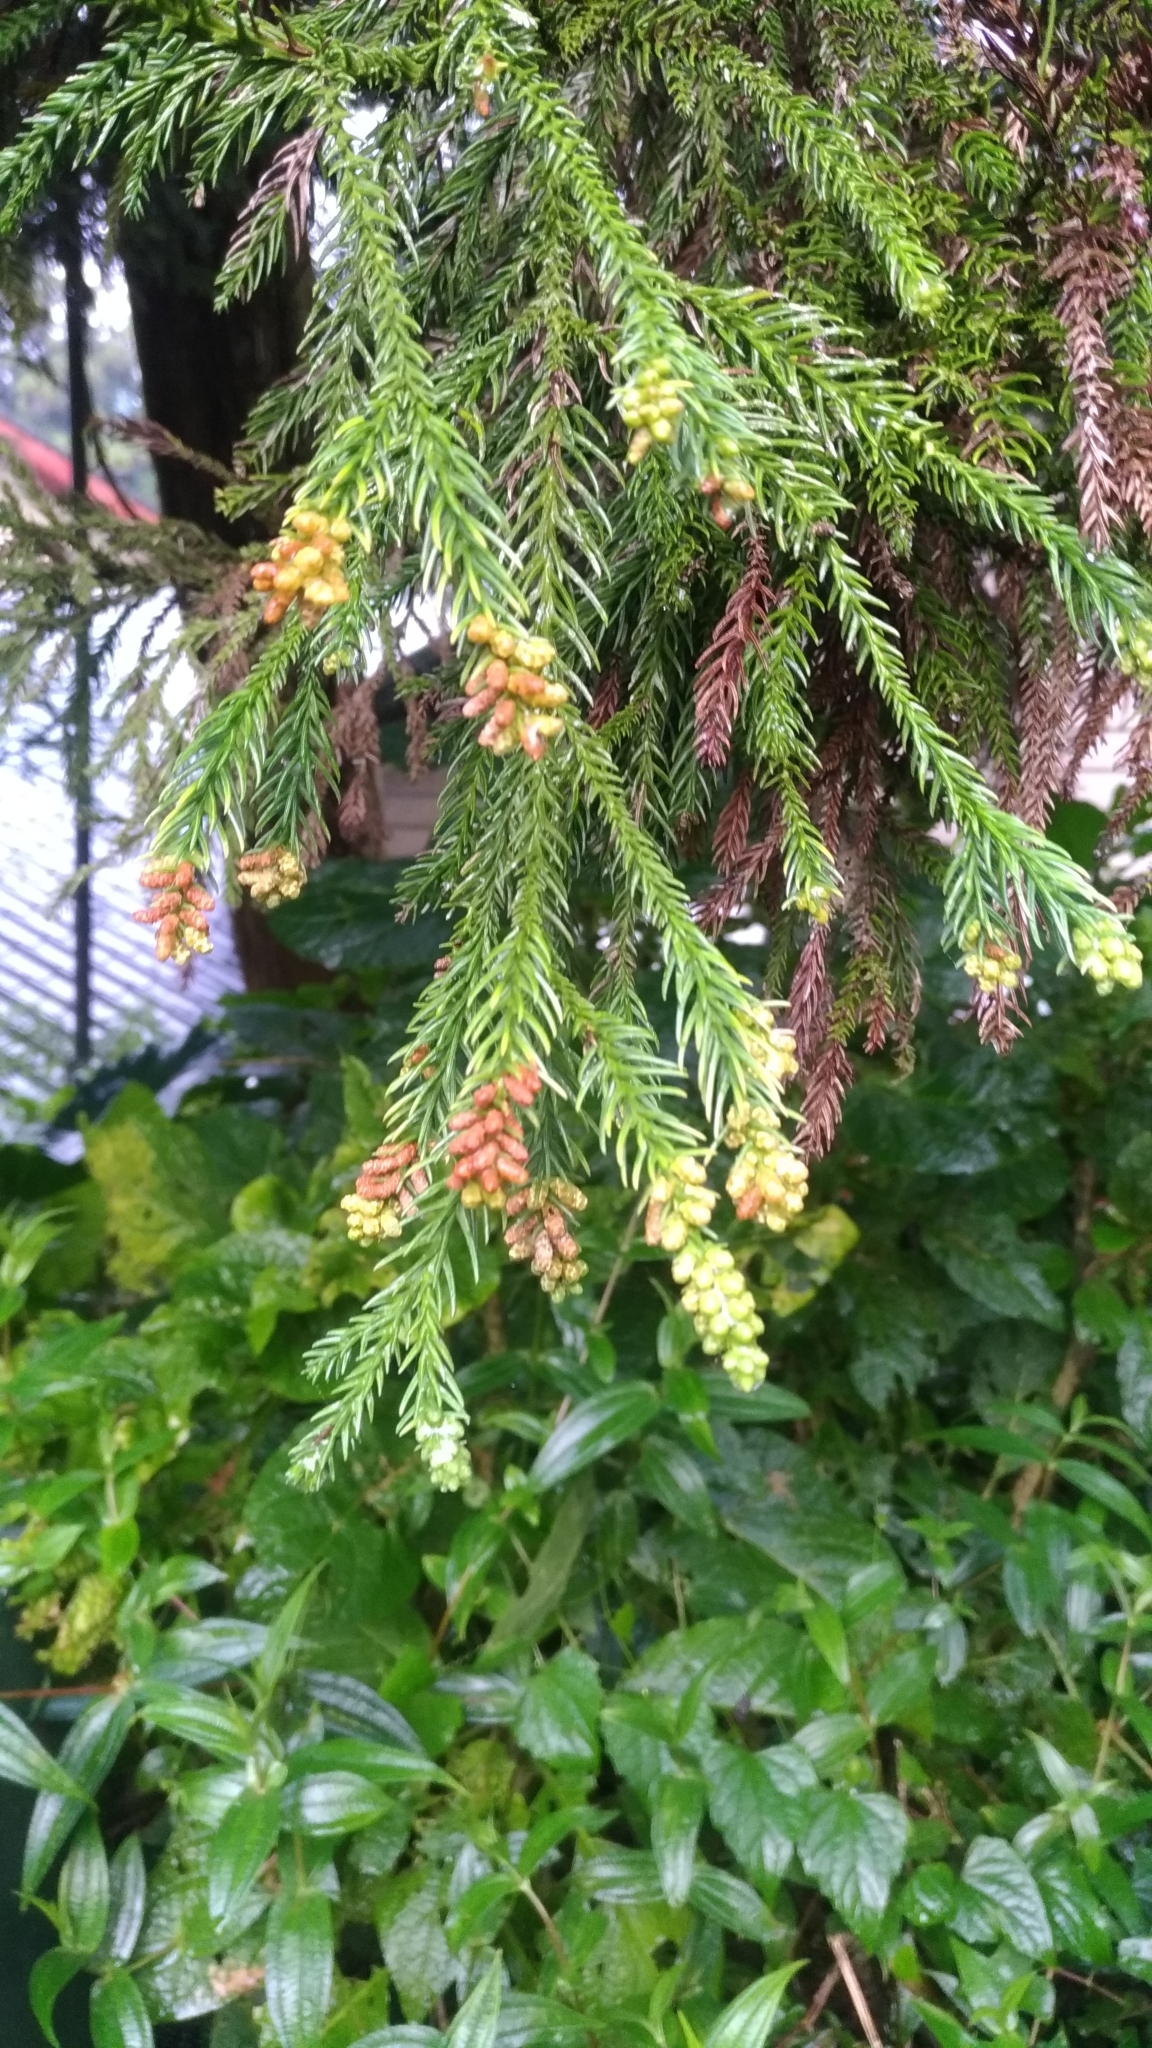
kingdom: Plantae
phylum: Tracheophyta
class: Pinopsida
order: Pinales
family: Cupressaceae
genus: Cryptomeria
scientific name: Cryptomeria japonica
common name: Japanese cedar
